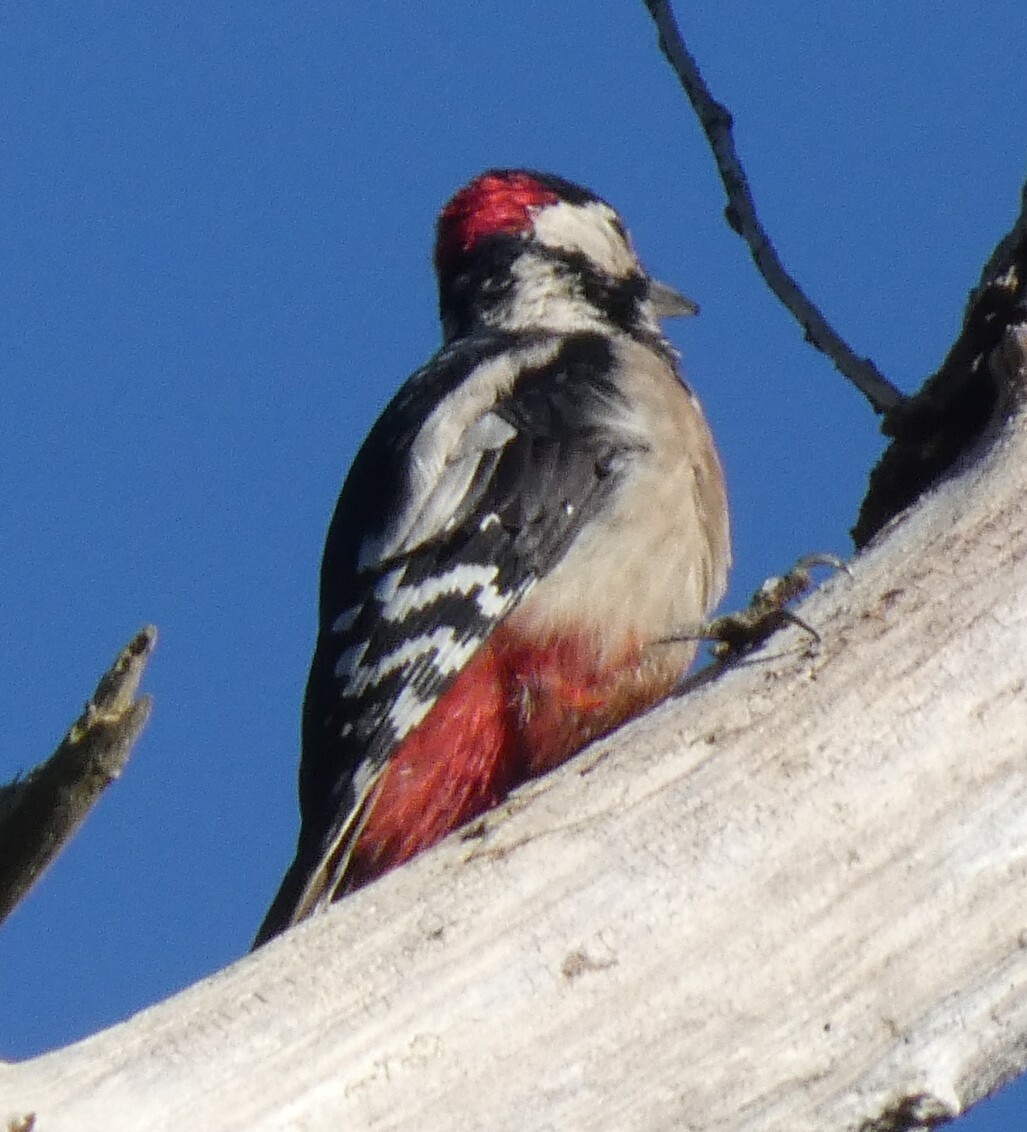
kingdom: Animalia
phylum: Chordata
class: Aves
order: Piciformes
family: Picidae
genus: Dendrocopos
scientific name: Dendrocopos major
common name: Great spotted woodpecker
